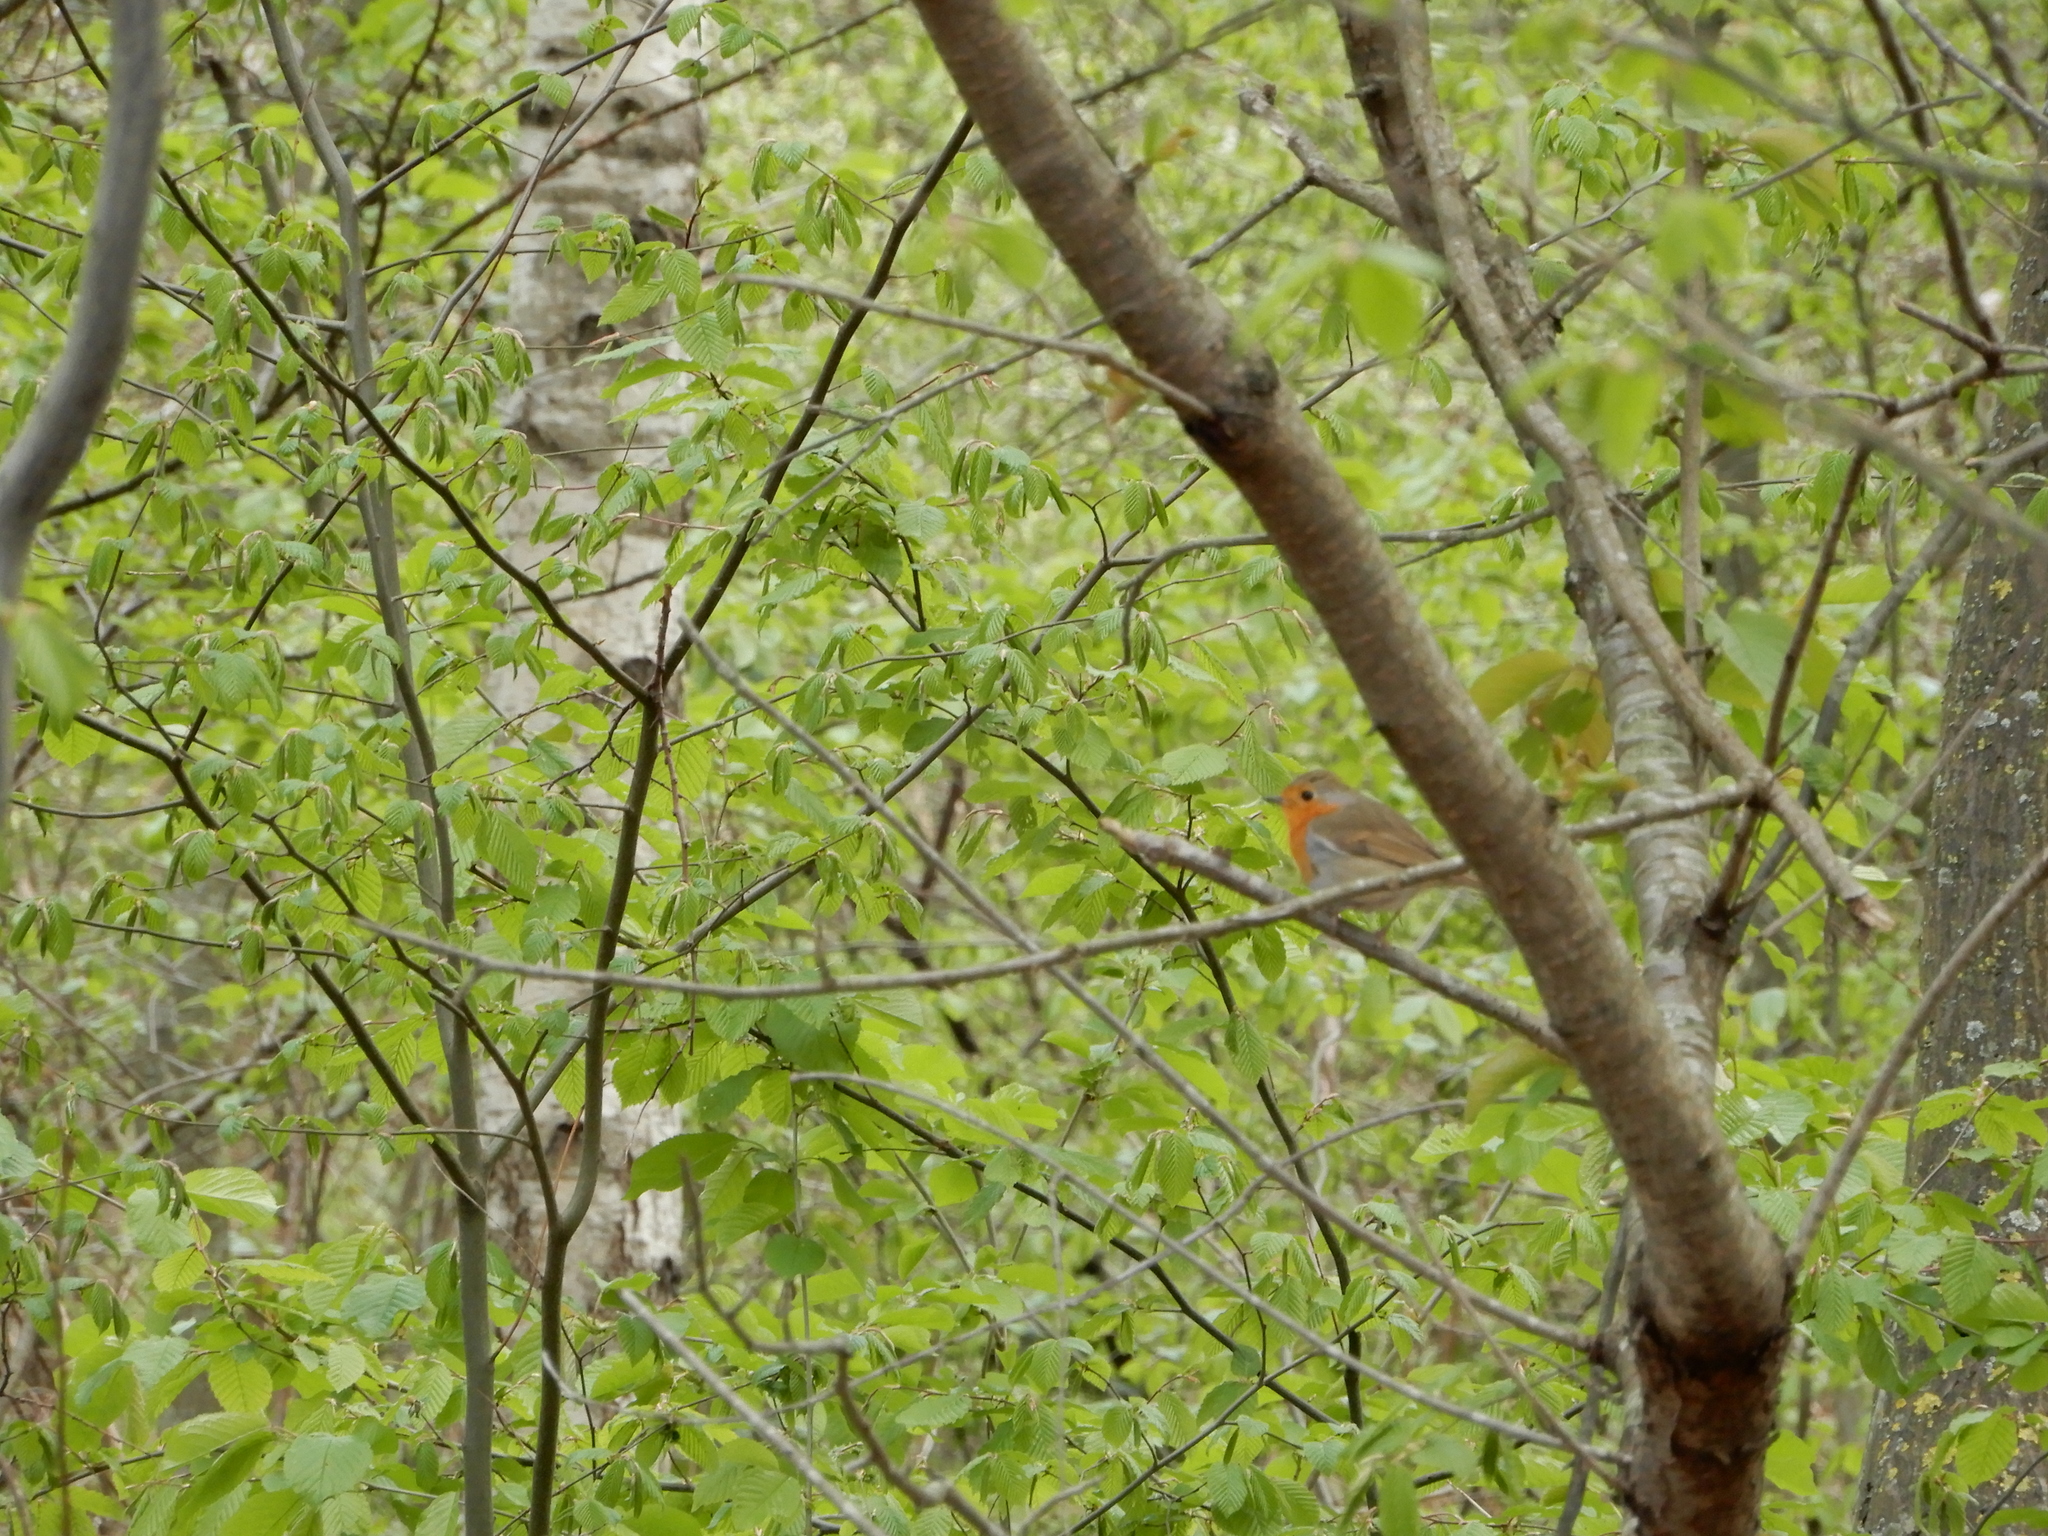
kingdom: Animalia
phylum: Chordata
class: Aves
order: Passeriformes
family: Muscicapidae
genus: Erithacus
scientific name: Erithacus rubecula
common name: European robin
